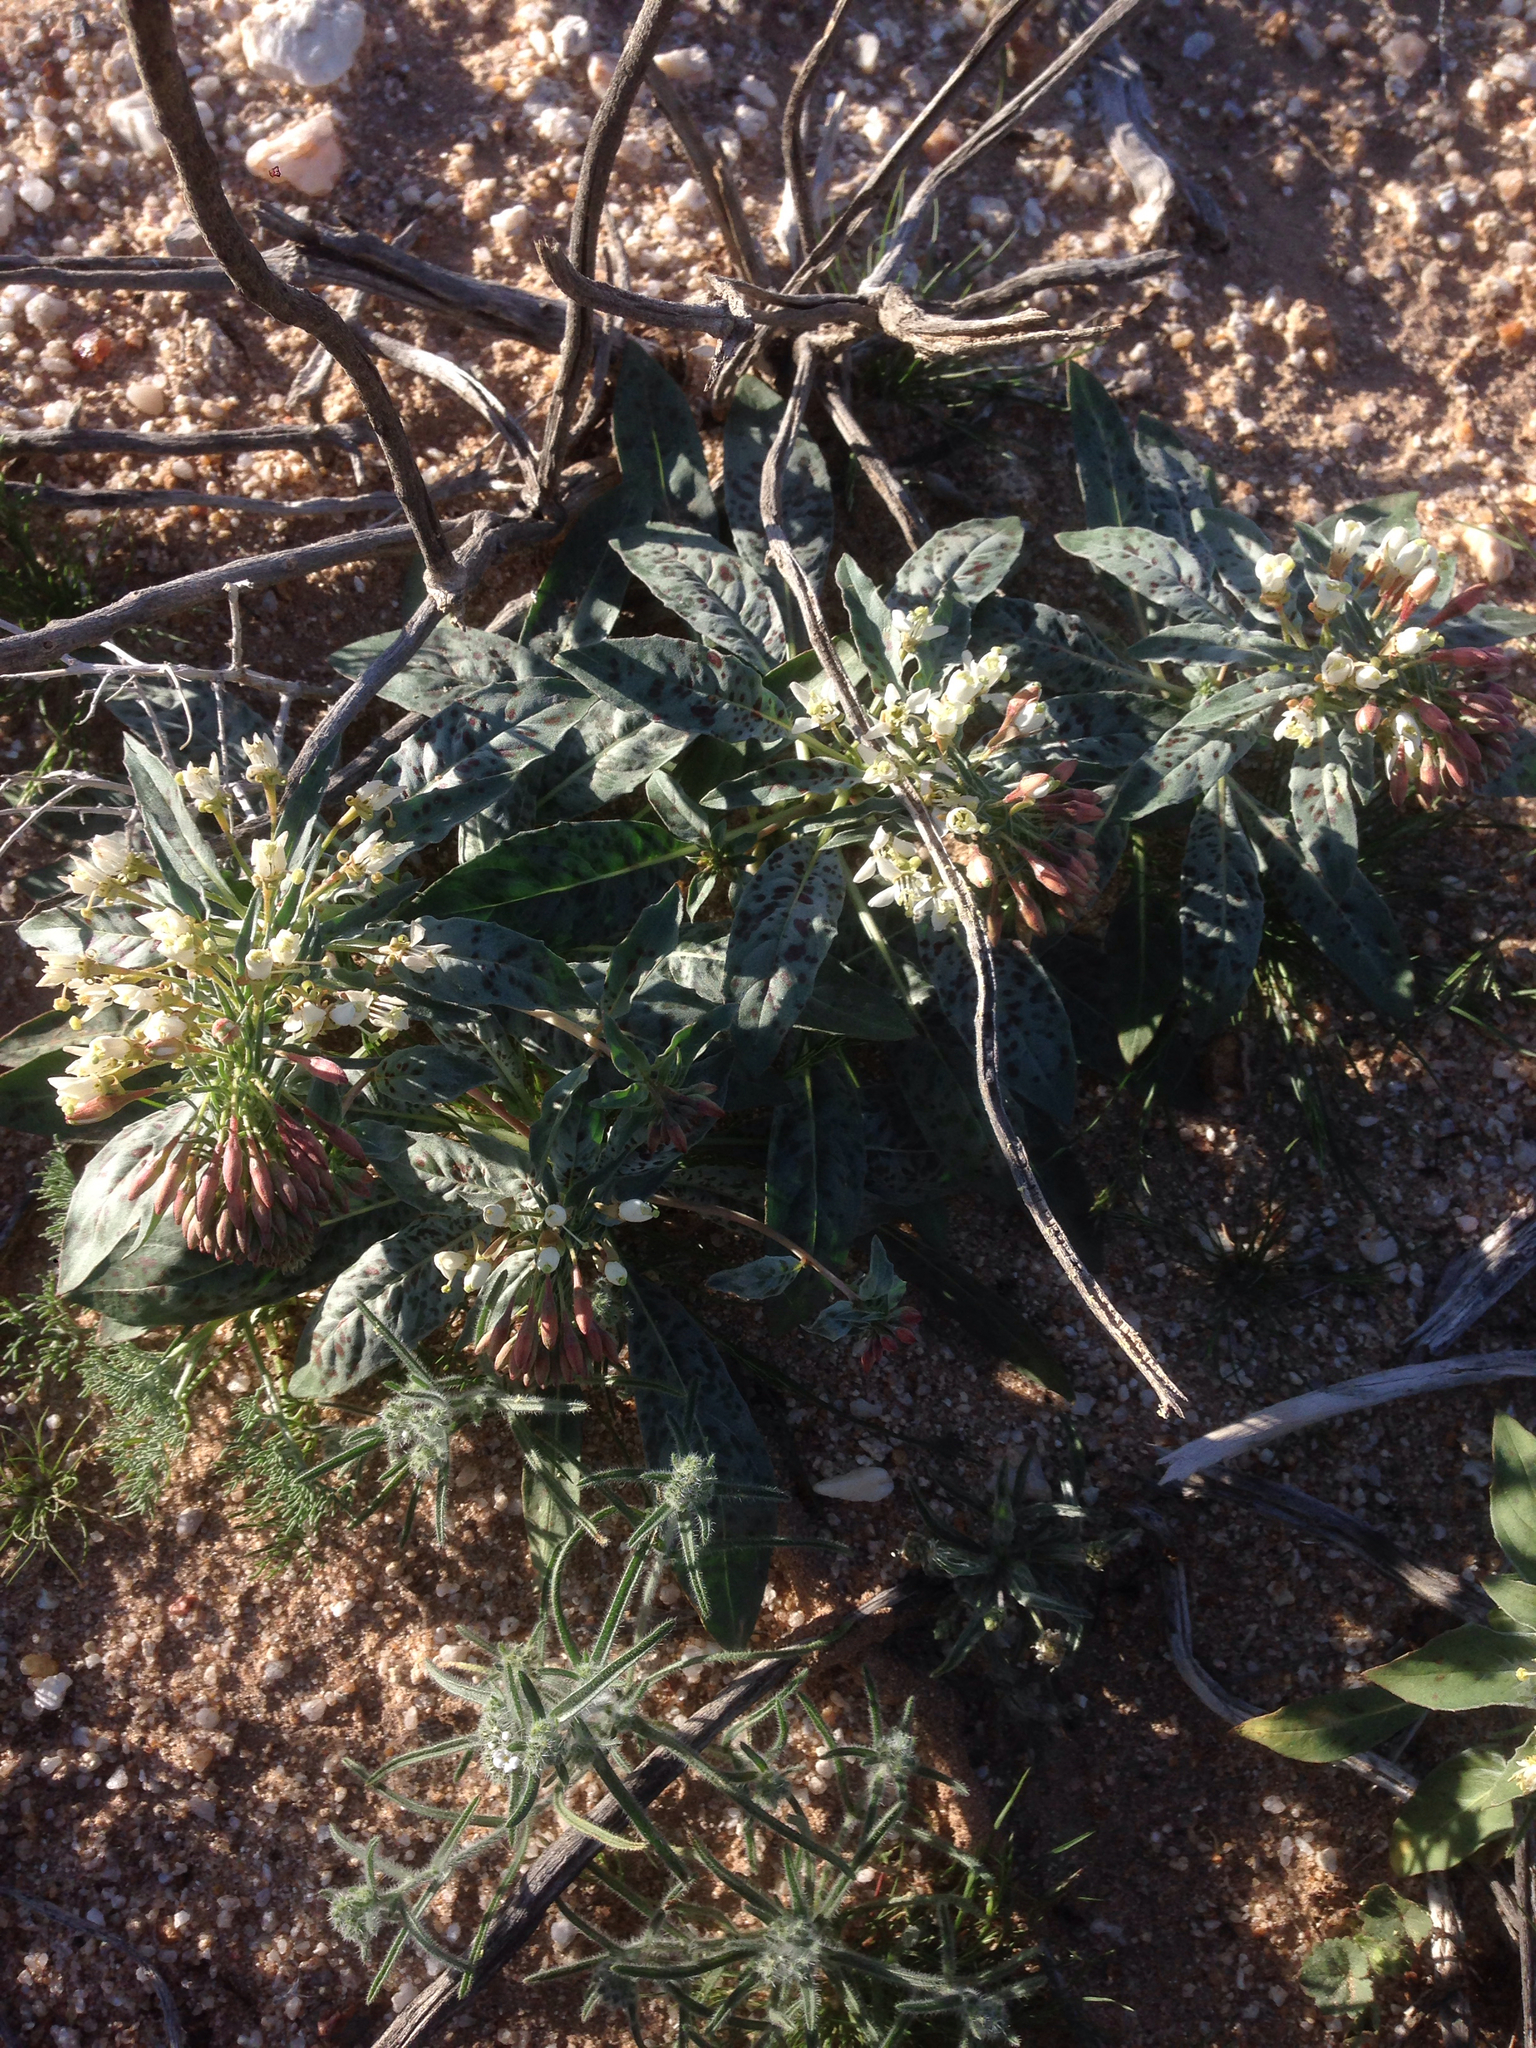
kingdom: Plantae
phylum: Tracheophyta
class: Magnoliopsida
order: Myrtales
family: Onagraceae
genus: Eremothera
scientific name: Eremothera boothii
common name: Booth's evening primrose
